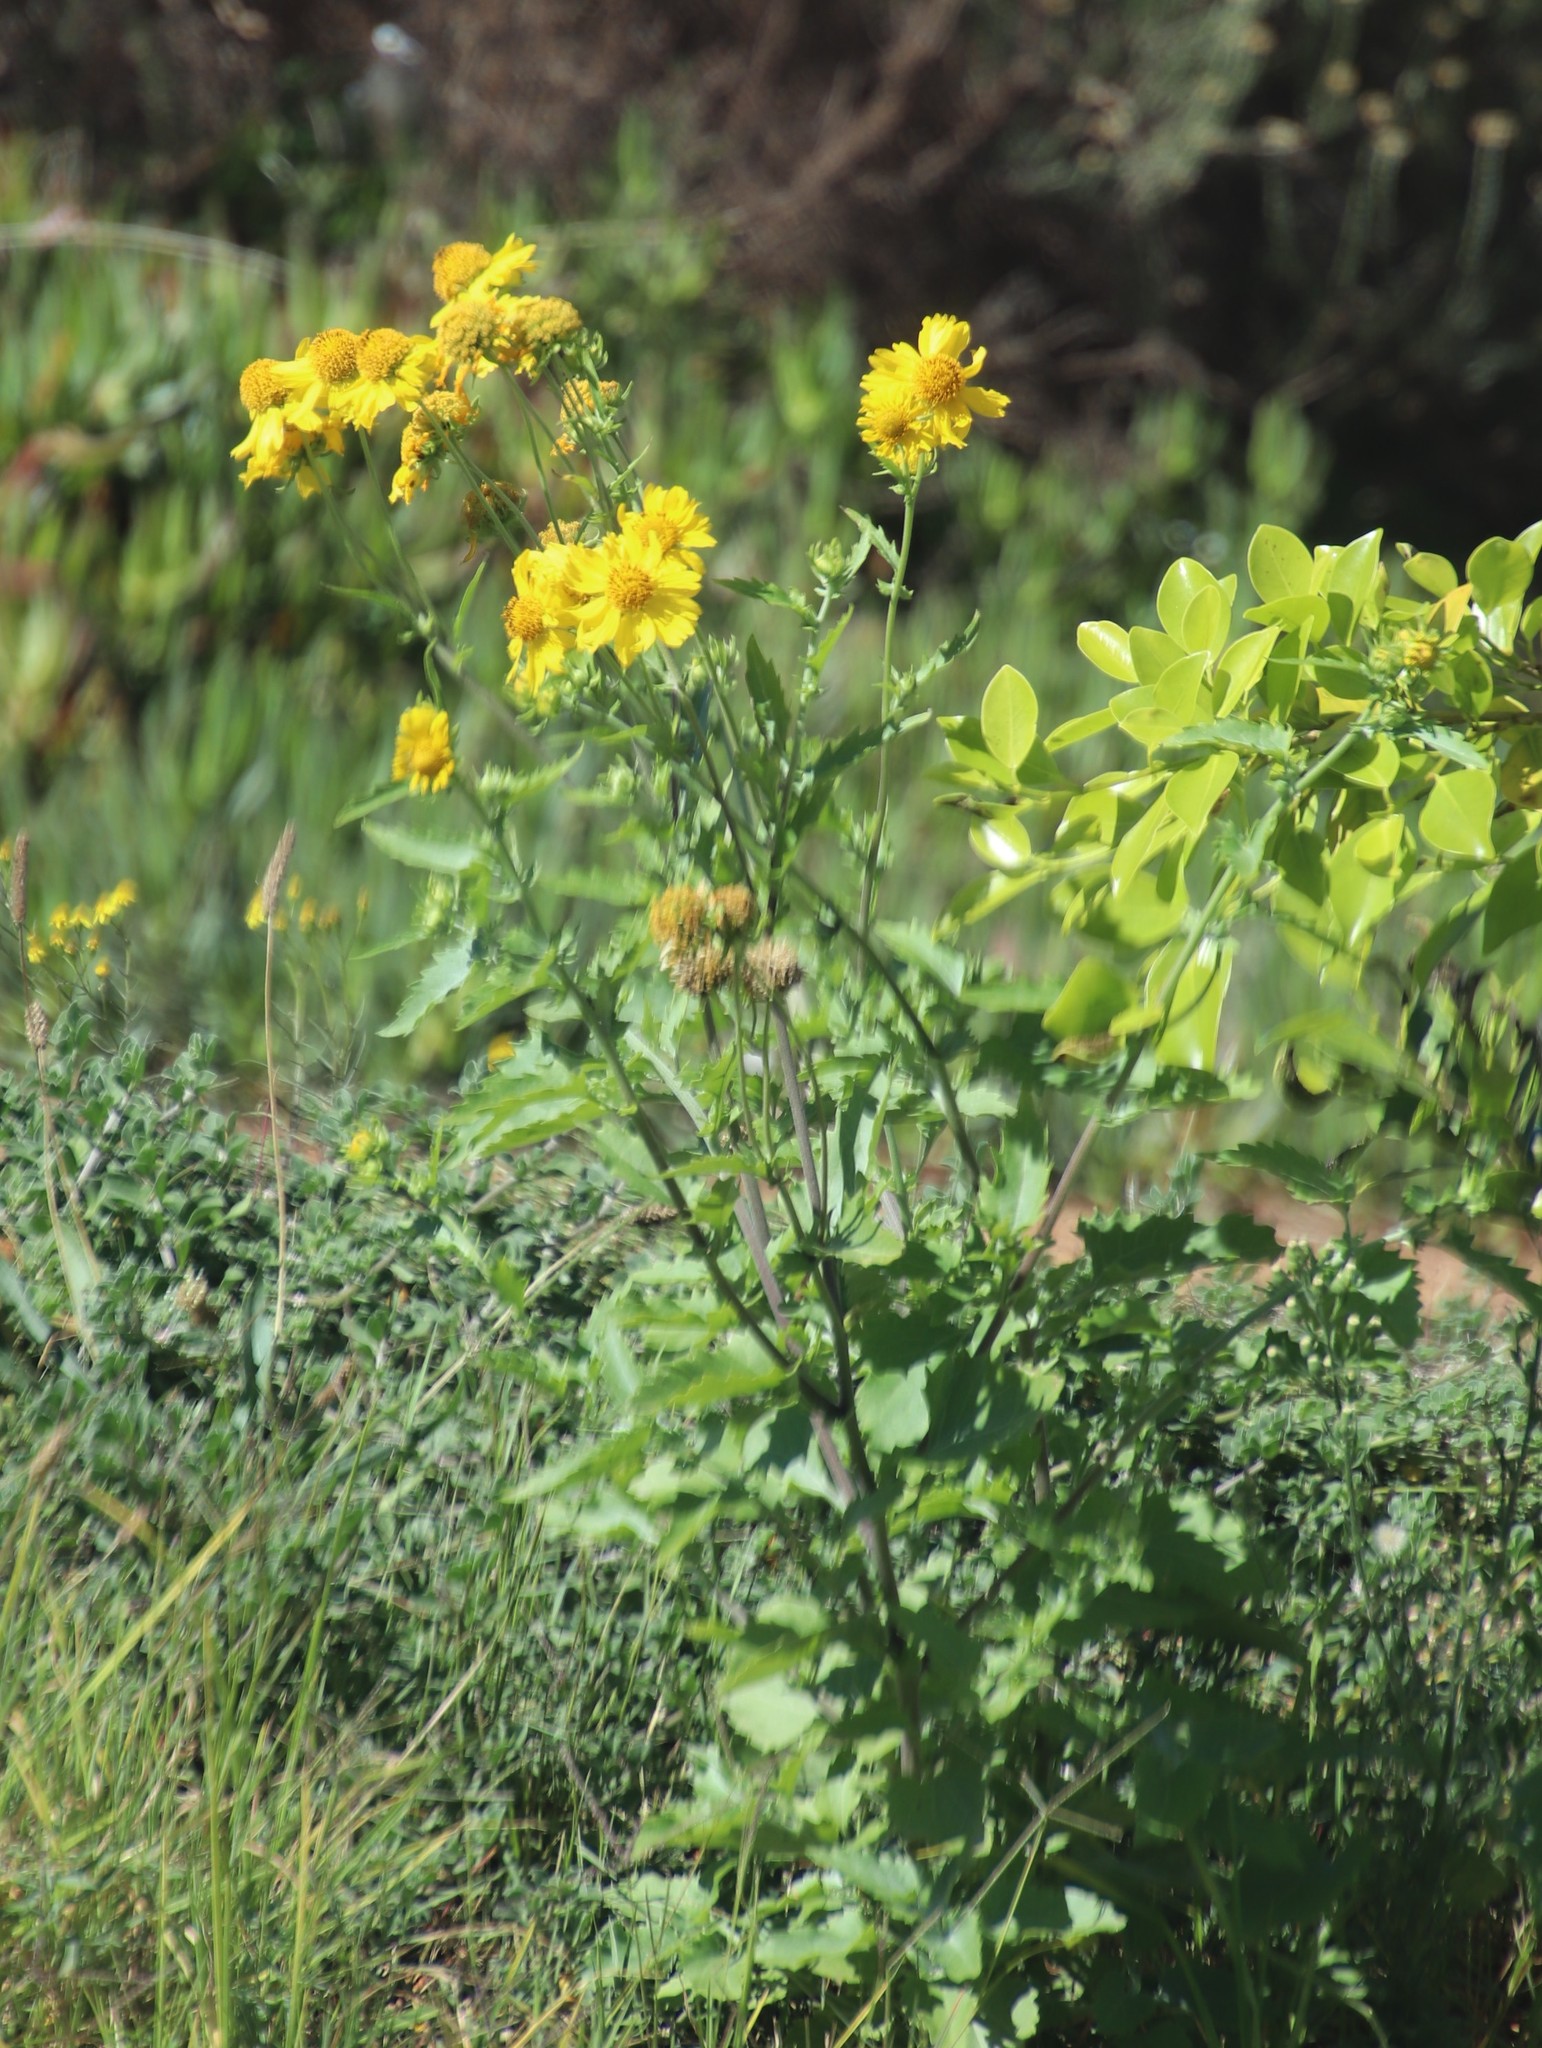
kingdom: Plantae
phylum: Tracheophyta
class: Magnoliopsida
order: Asterales
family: Asteraceae
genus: Verbesina
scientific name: Verbesina encelioides
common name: Golden crownbeard
